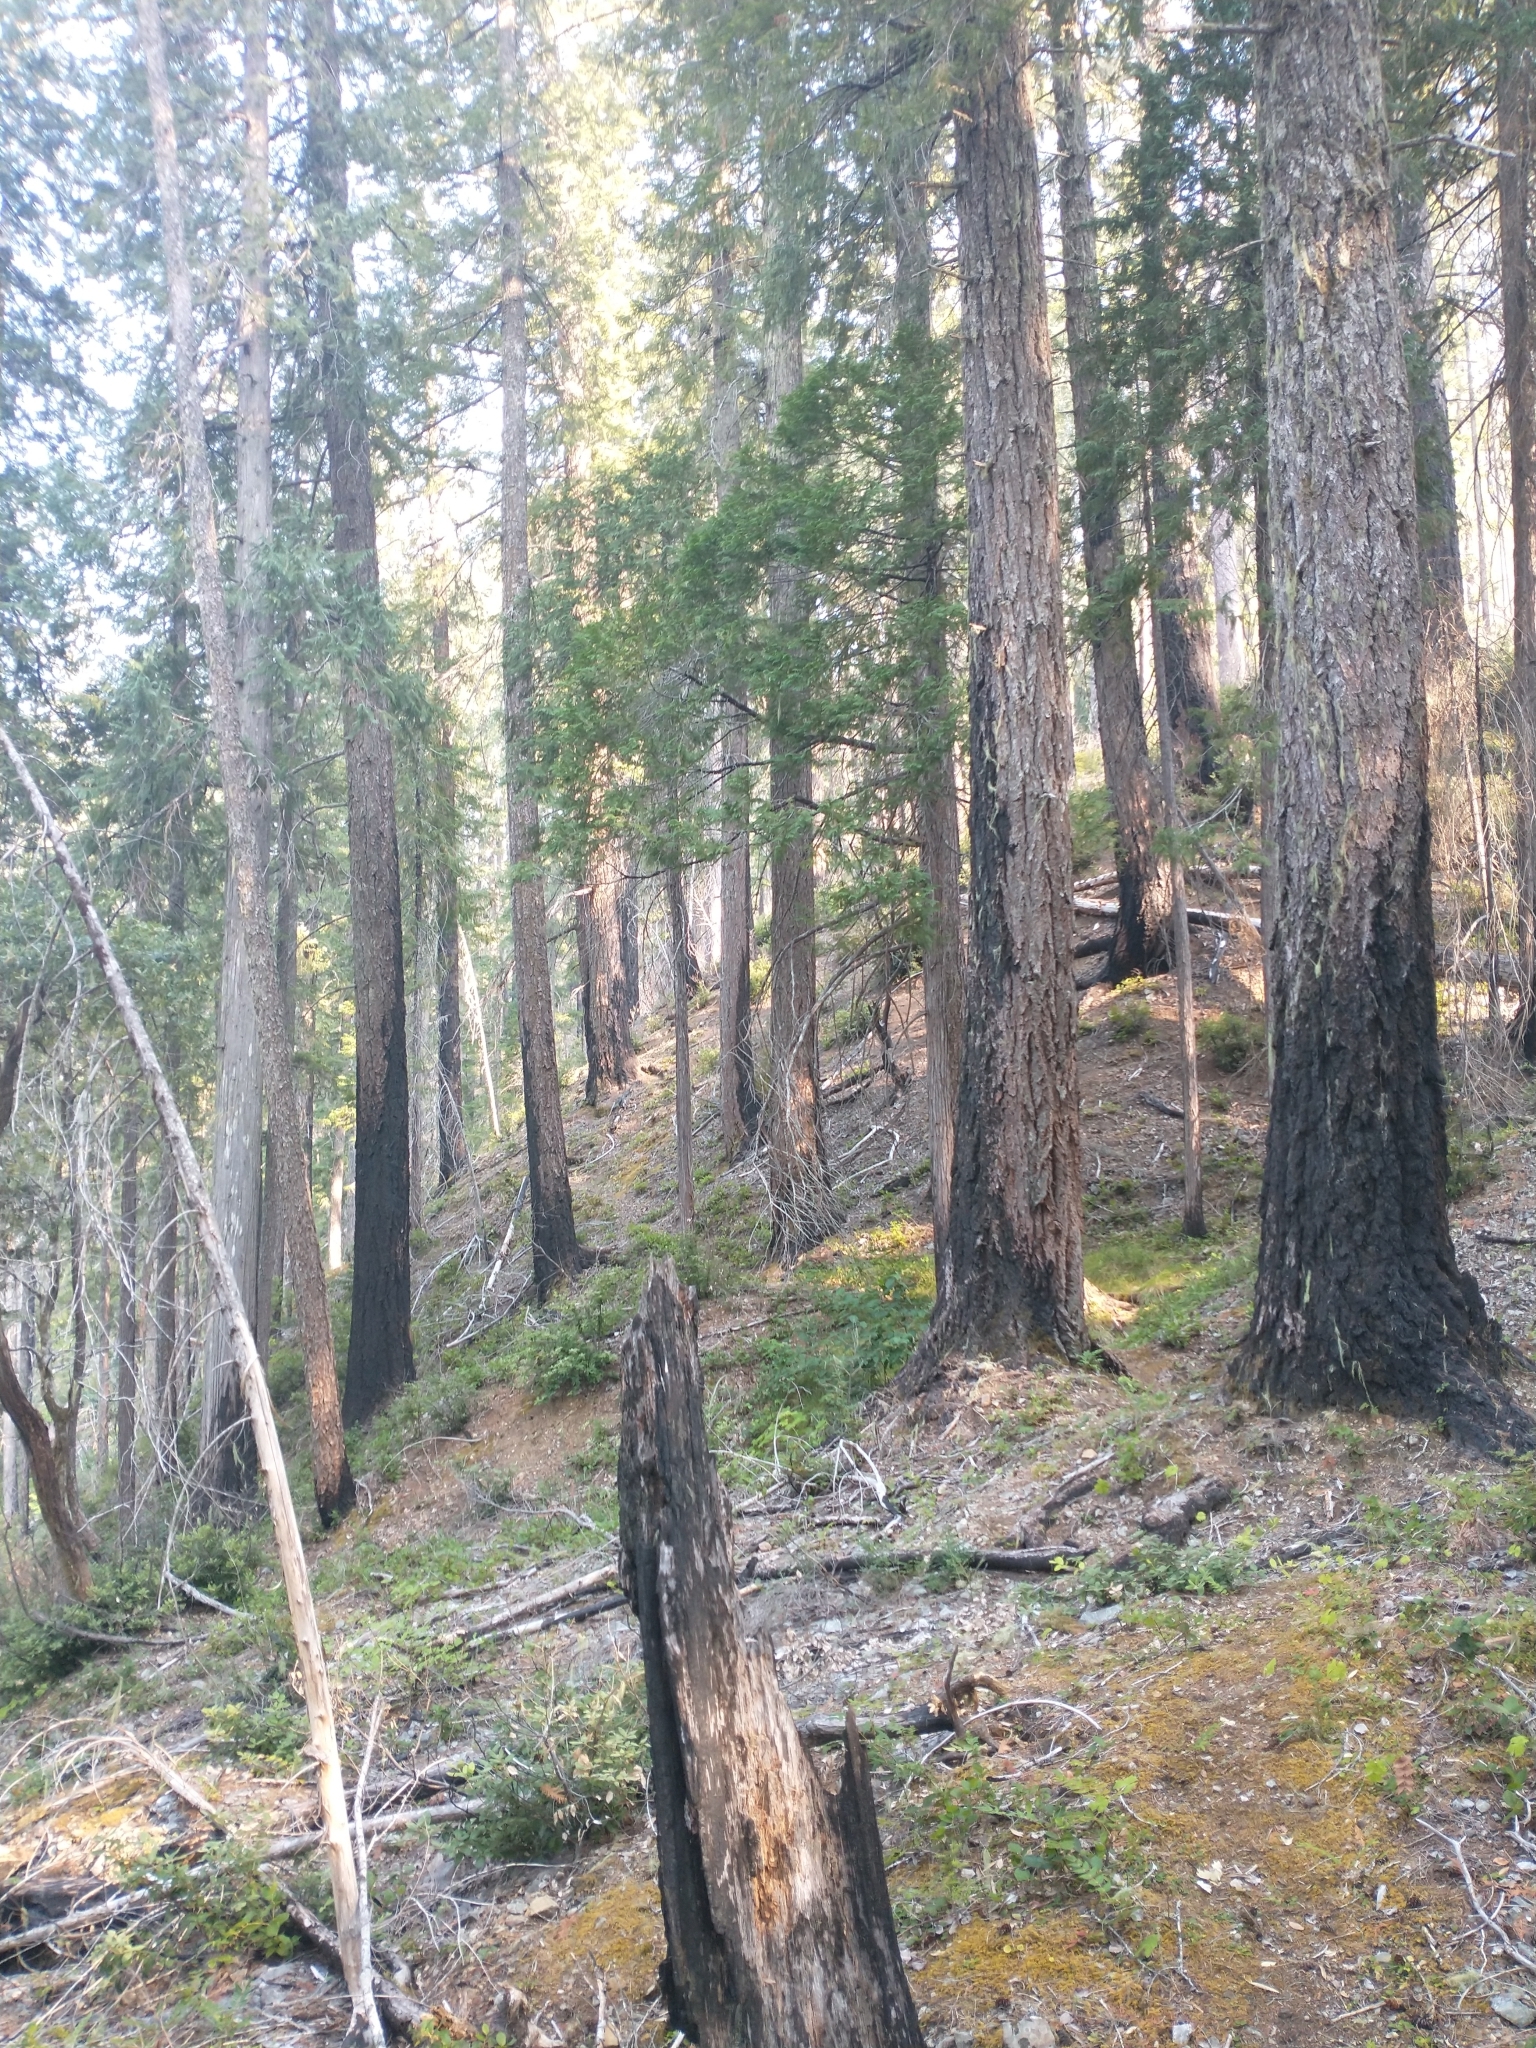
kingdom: Plantae
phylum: Tracheophyta
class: Pinopsida
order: Pinales
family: Pinaceae
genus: Pseudotsuga
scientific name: Pseudotsuga menziesii
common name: Douglas fir
